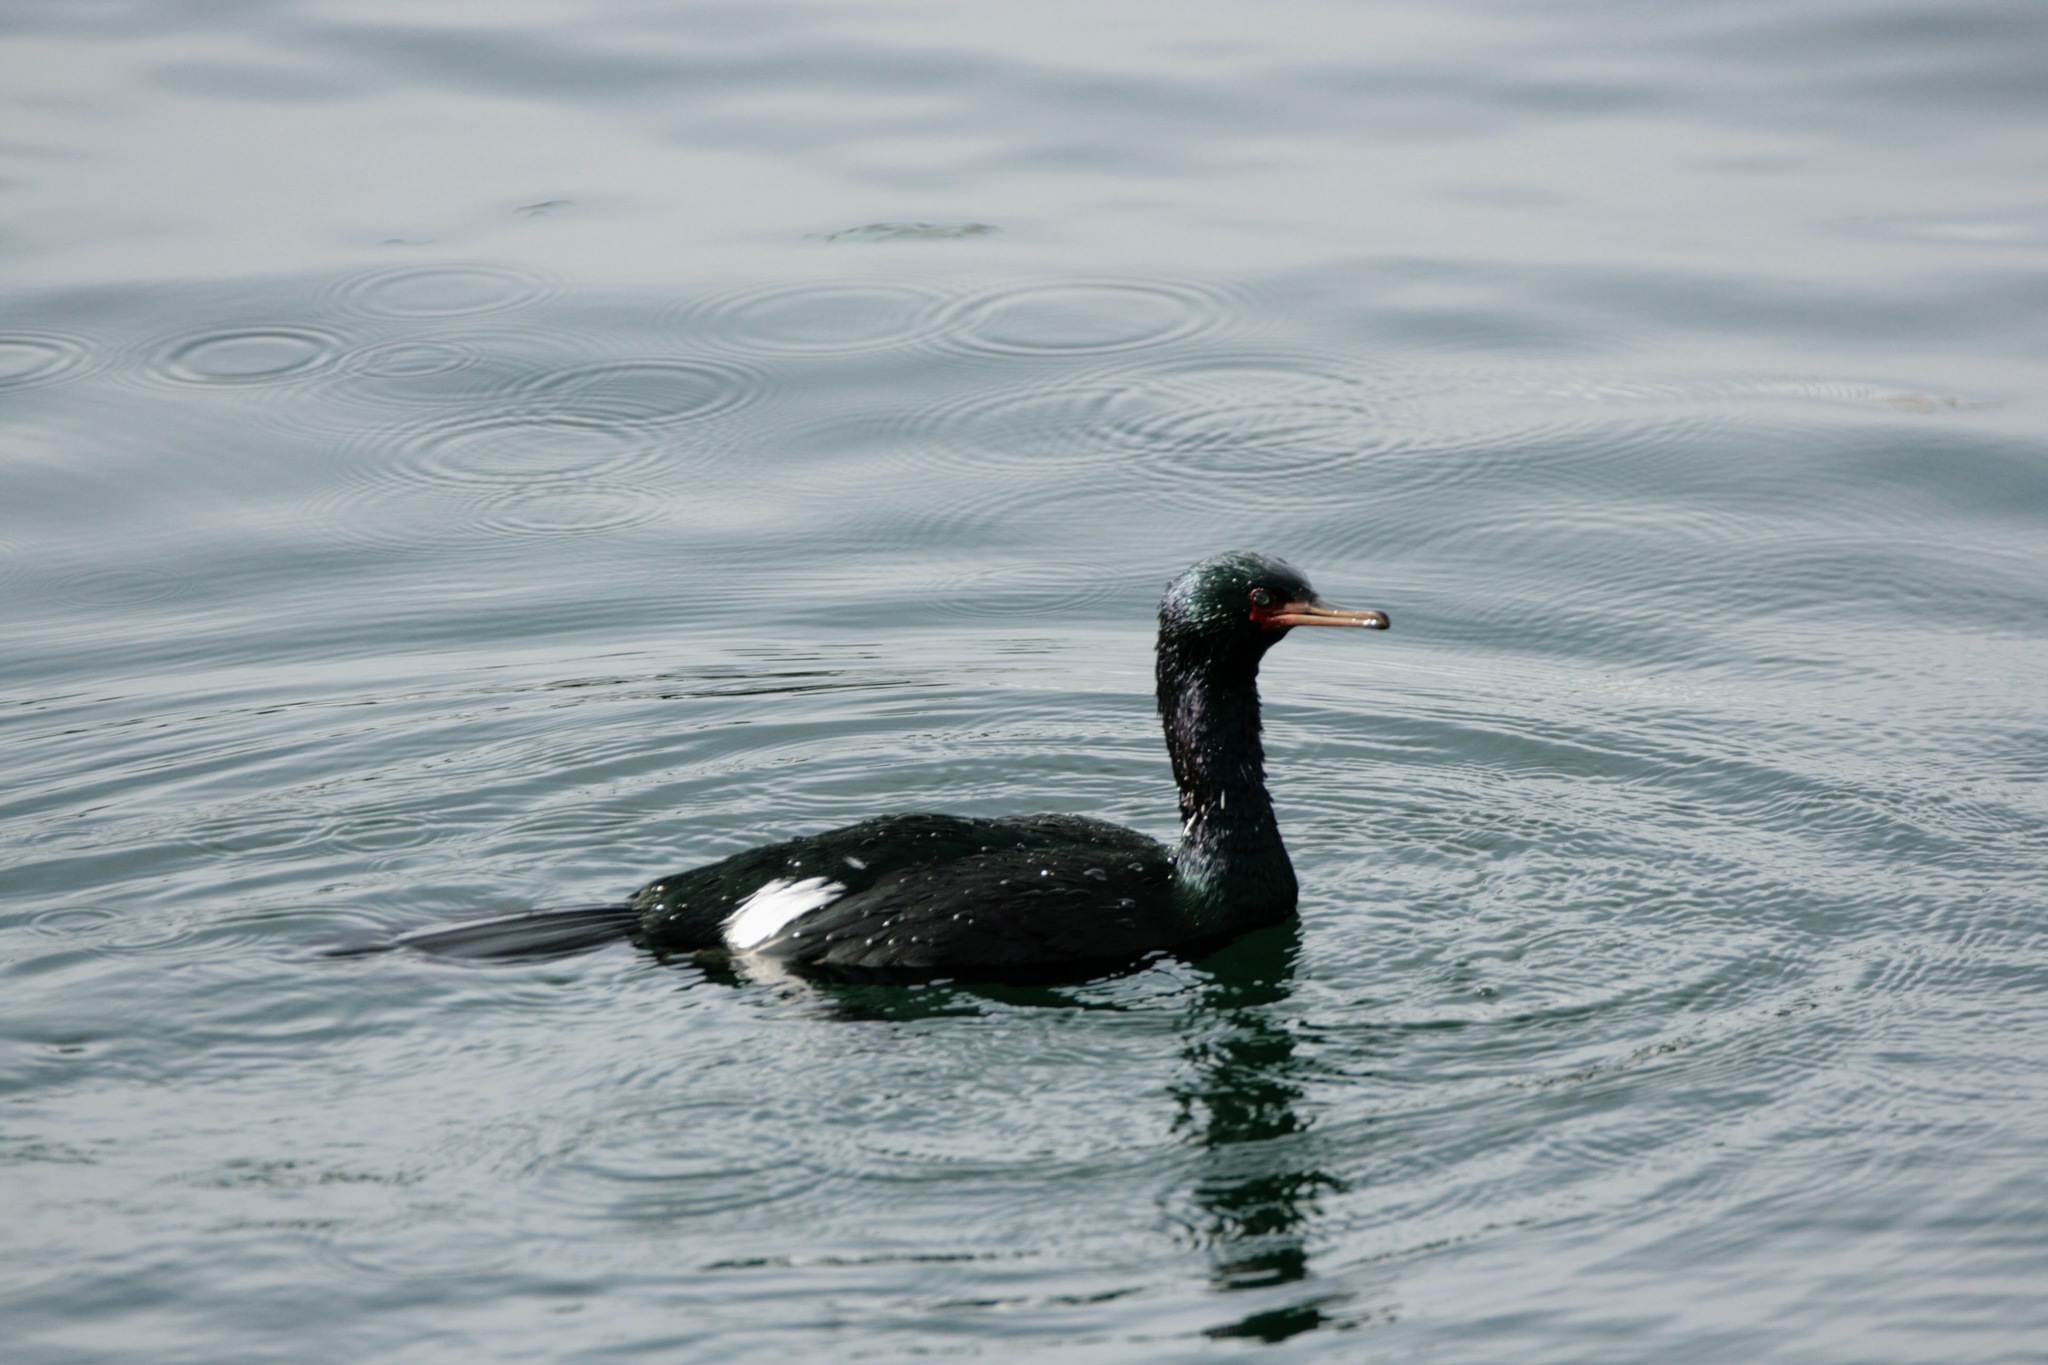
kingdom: Animalia
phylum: Chordata
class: Aves
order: Suliformes
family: Phalacrocoracidae
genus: Phalacrocorax
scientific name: Phalacrocorax pelagicus
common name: Pelagic cormorant
